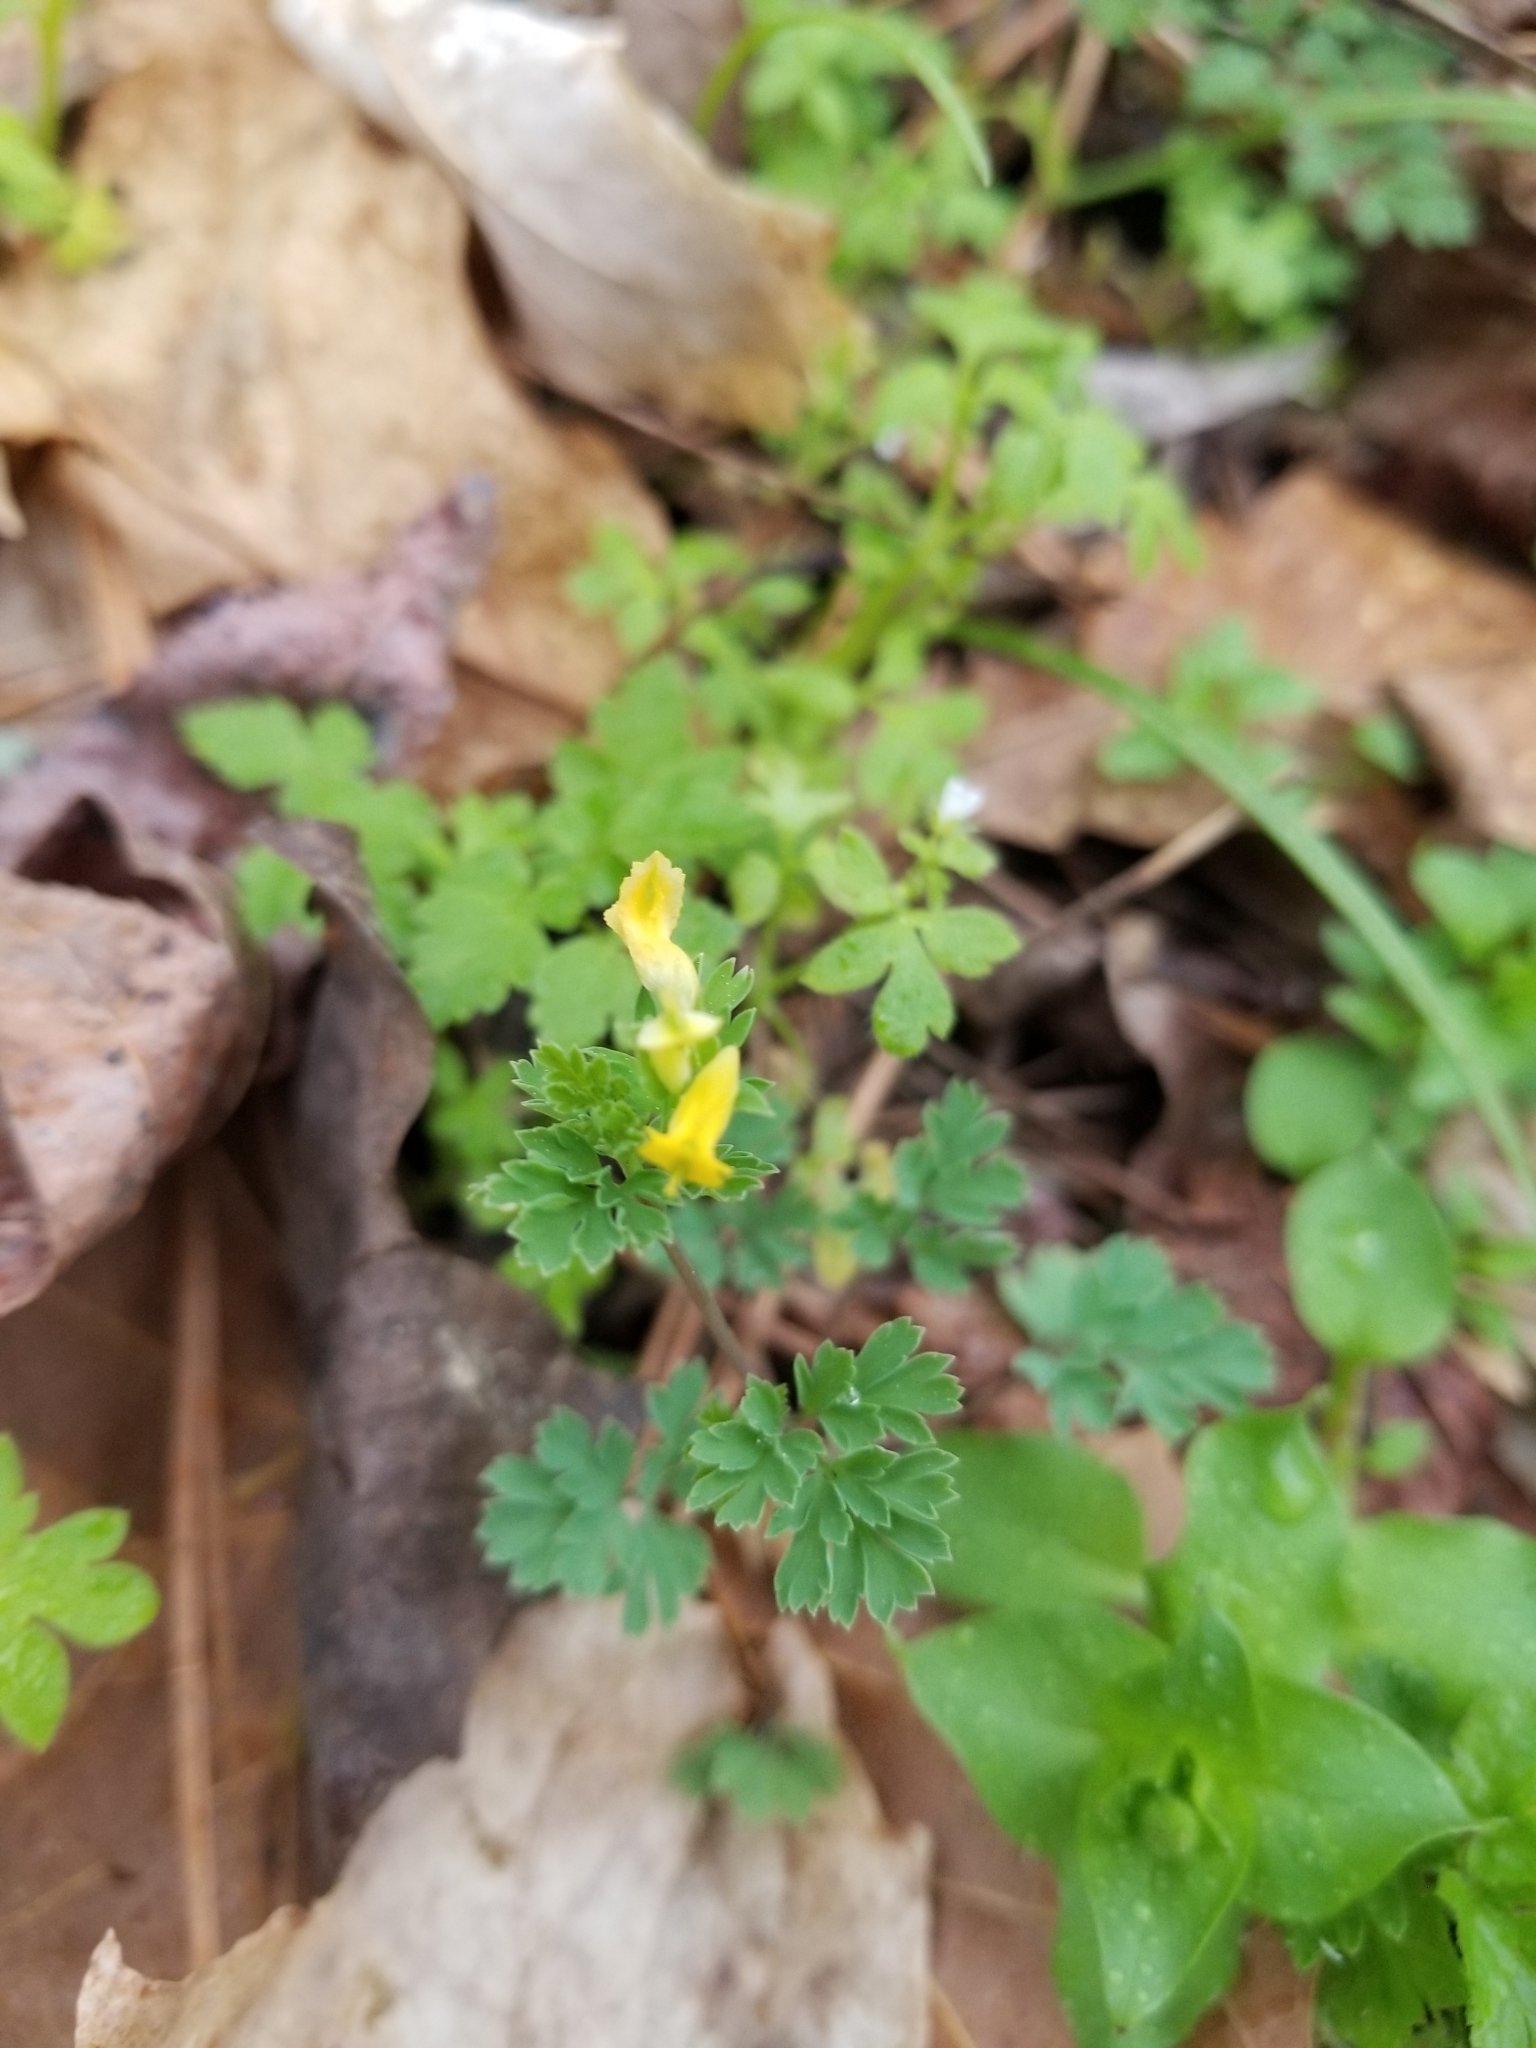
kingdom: Plantae
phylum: Tracheophyta
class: Magnoliopsida
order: Ranunculales
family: Papaveraceae
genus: Corydalis
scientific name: Corydalis flavula
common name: Yellow corydalis
